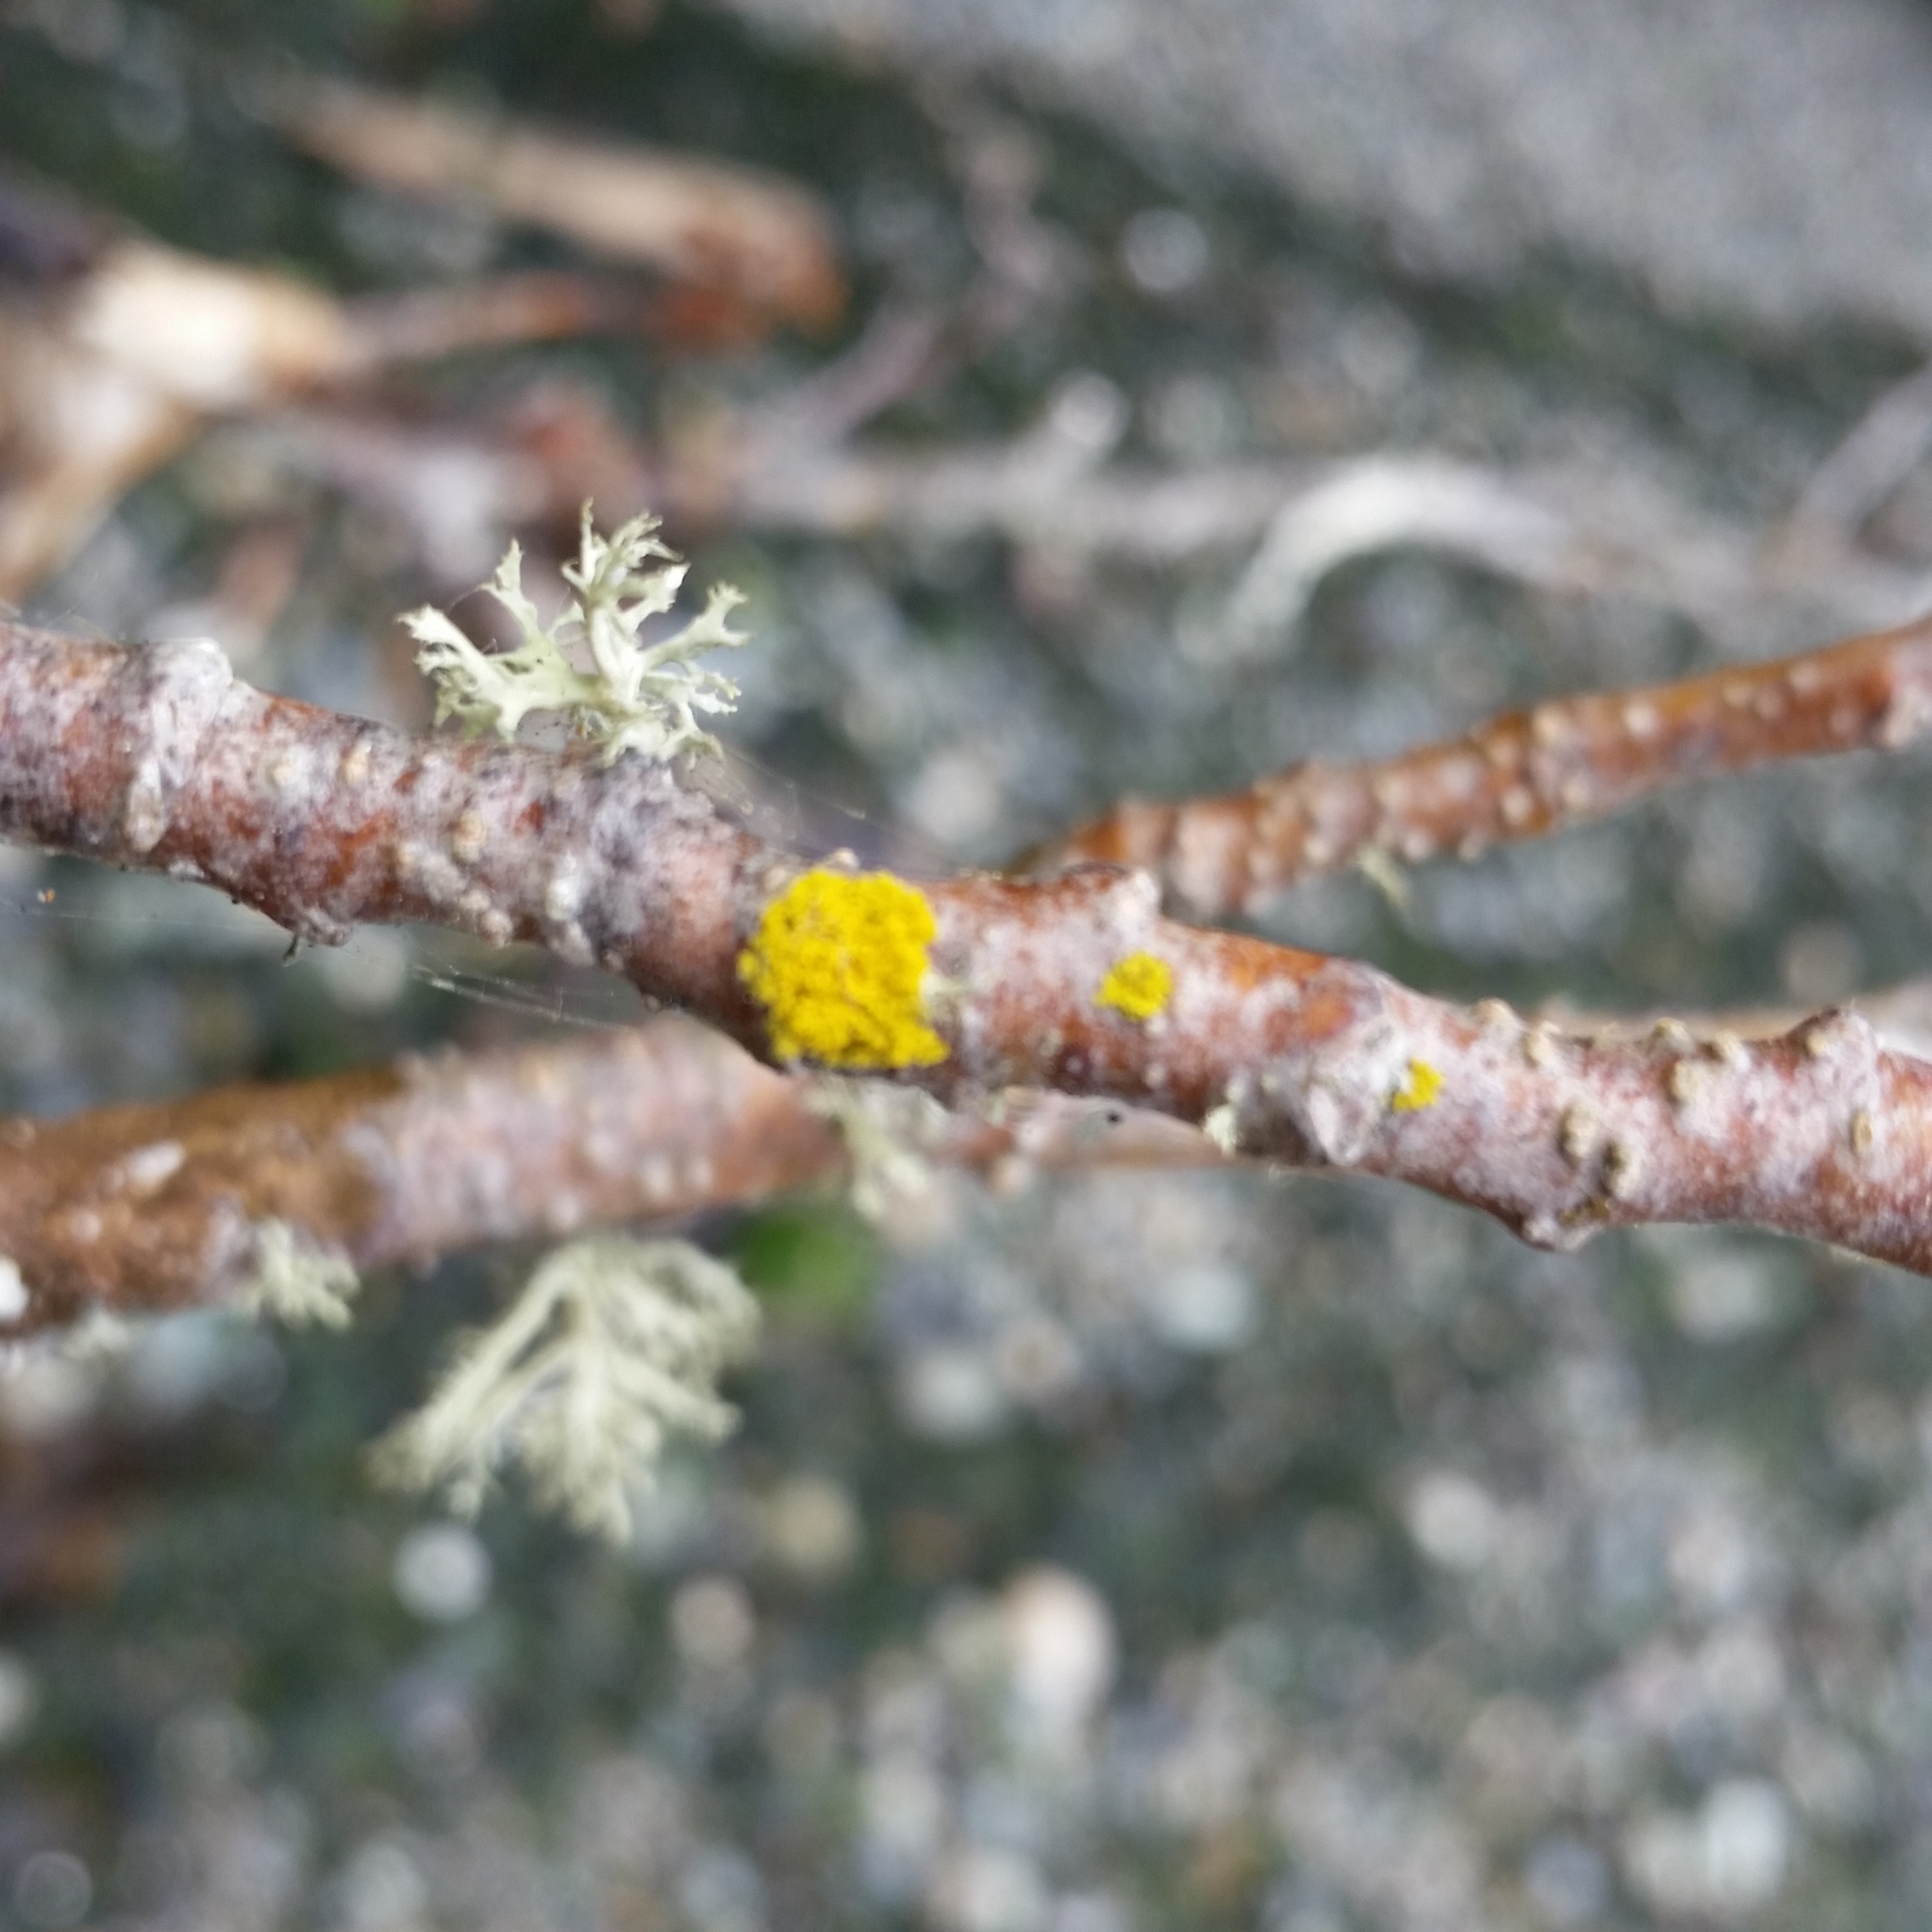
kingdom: Fungi
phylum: Ascomycota
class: Candelariomycetes
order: Candelariales
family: Candelariaceae
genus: Candelaria
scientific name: Candelaria concolor
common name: Candleflame lichen
